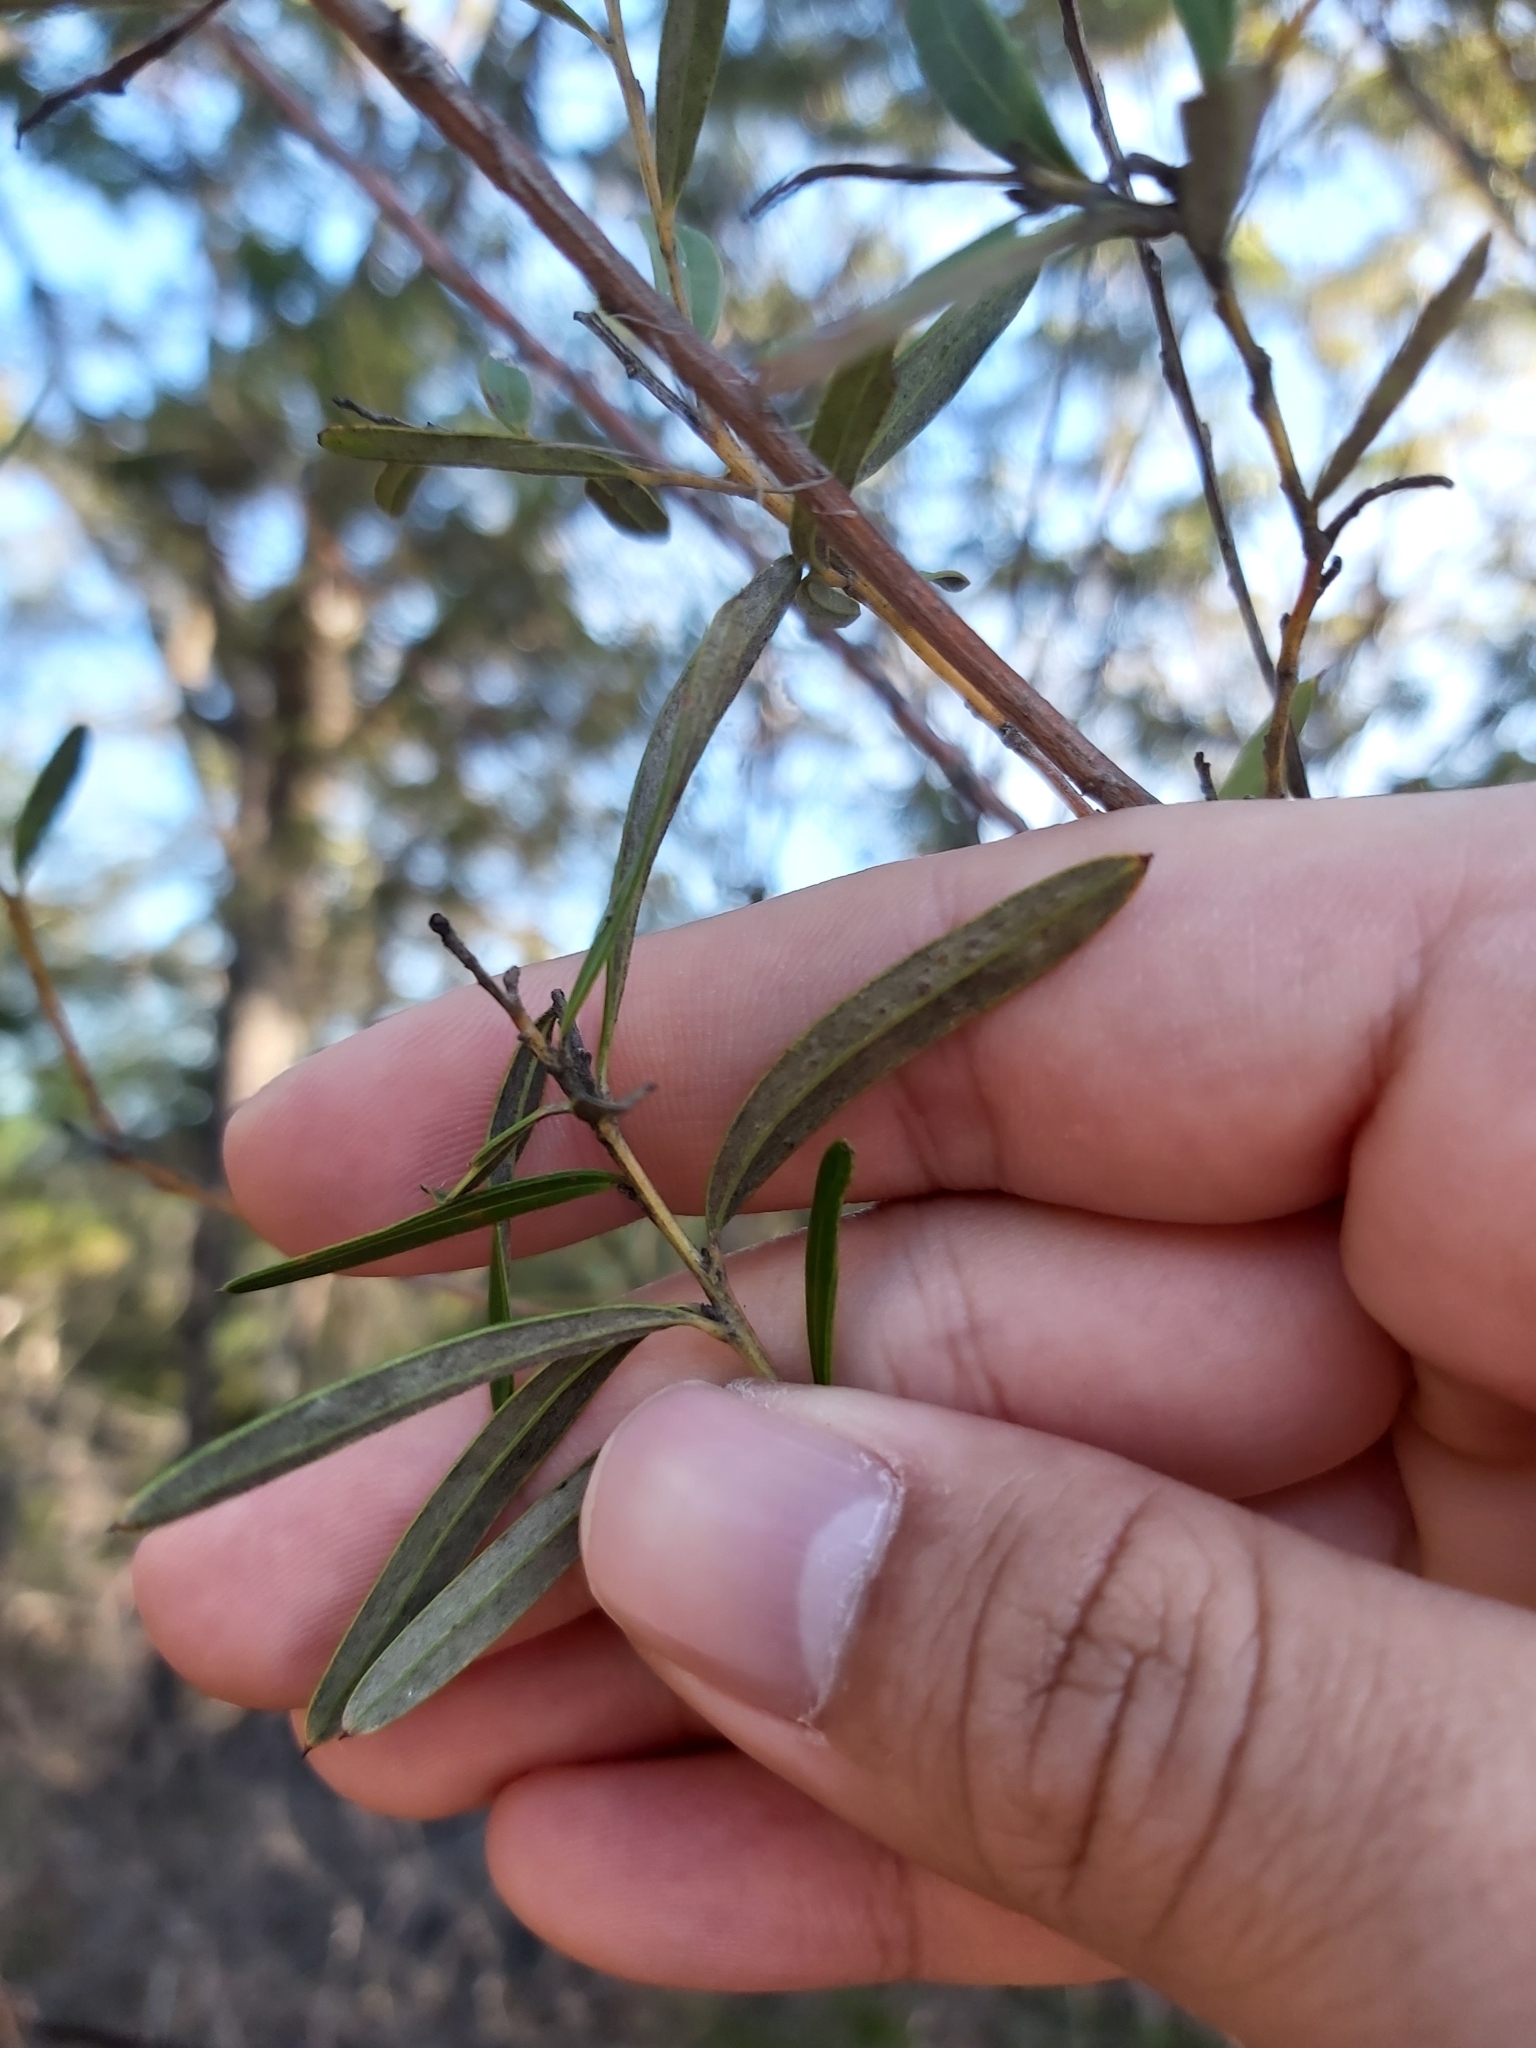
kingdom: Plantae
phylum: Tracheophyta
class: Magnoliopsida
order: Proteales
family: Proteaceae
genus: Grevillea
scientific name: Grevillea sericea
